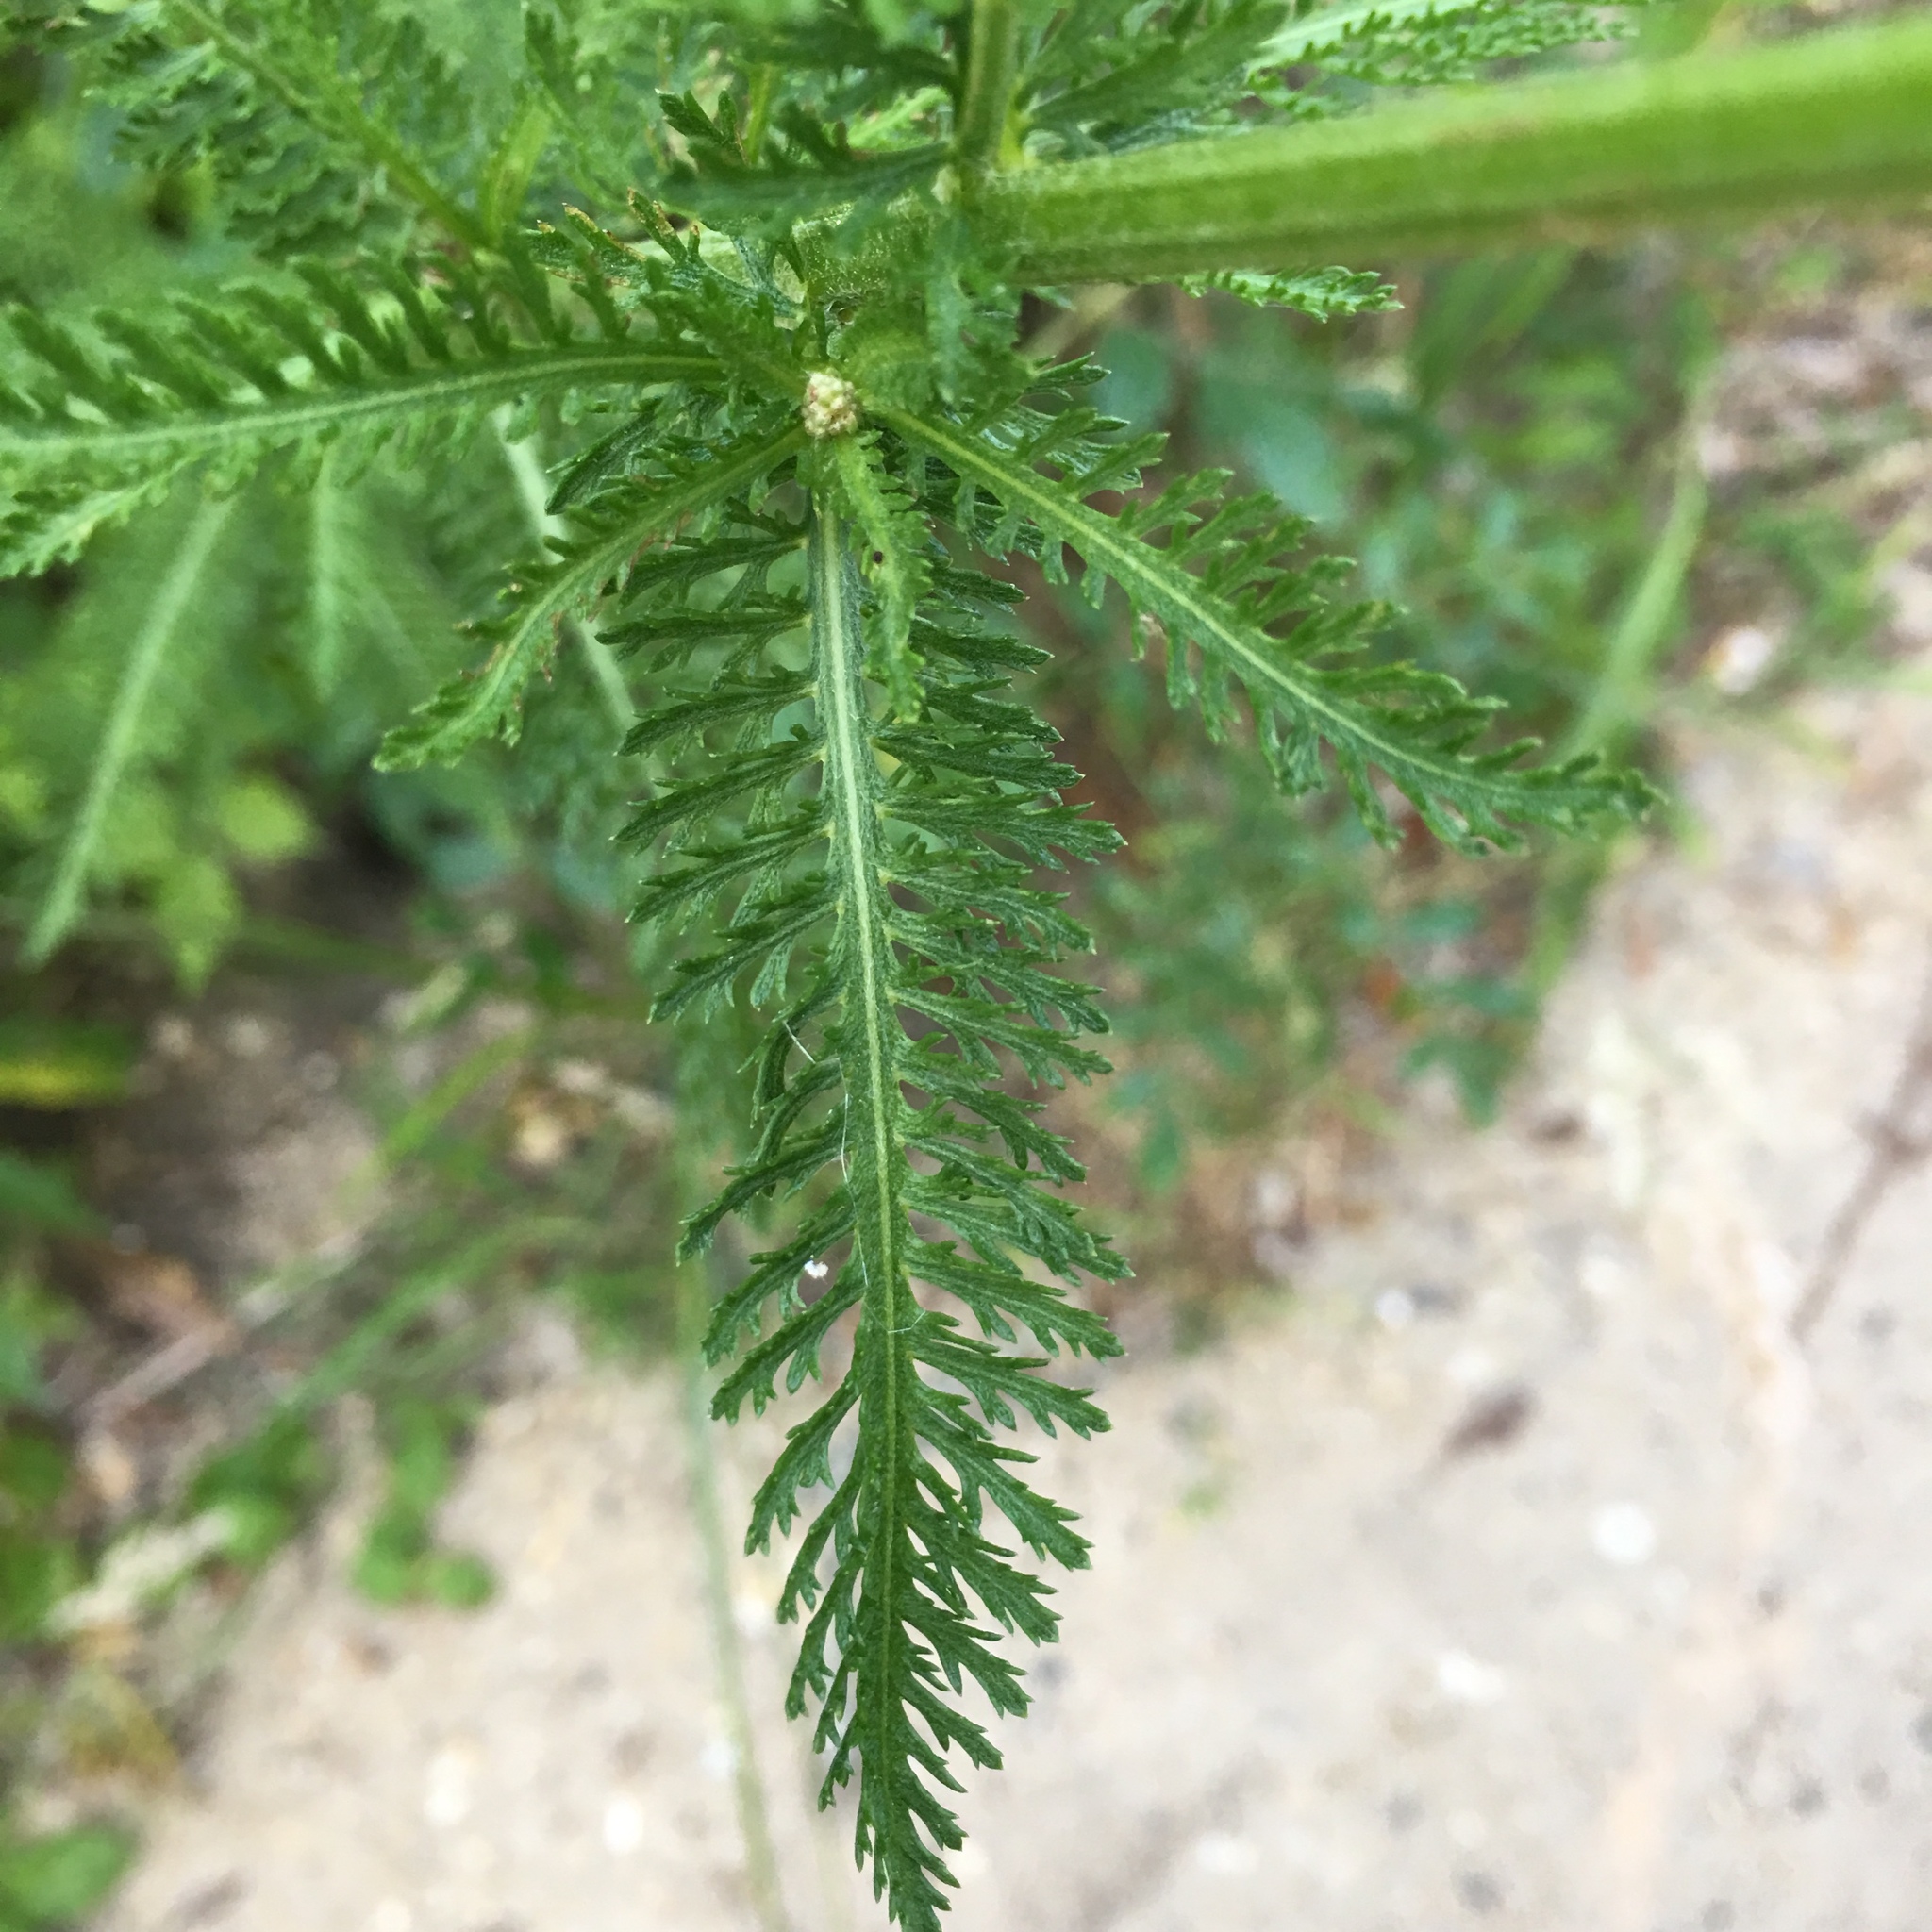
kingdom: Plantae
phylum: Tracheophyta
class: Magnoliopsida
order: Asterales
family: Asteraceae
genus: Achillea
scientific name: Achillea millefolium
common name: Yarrow
